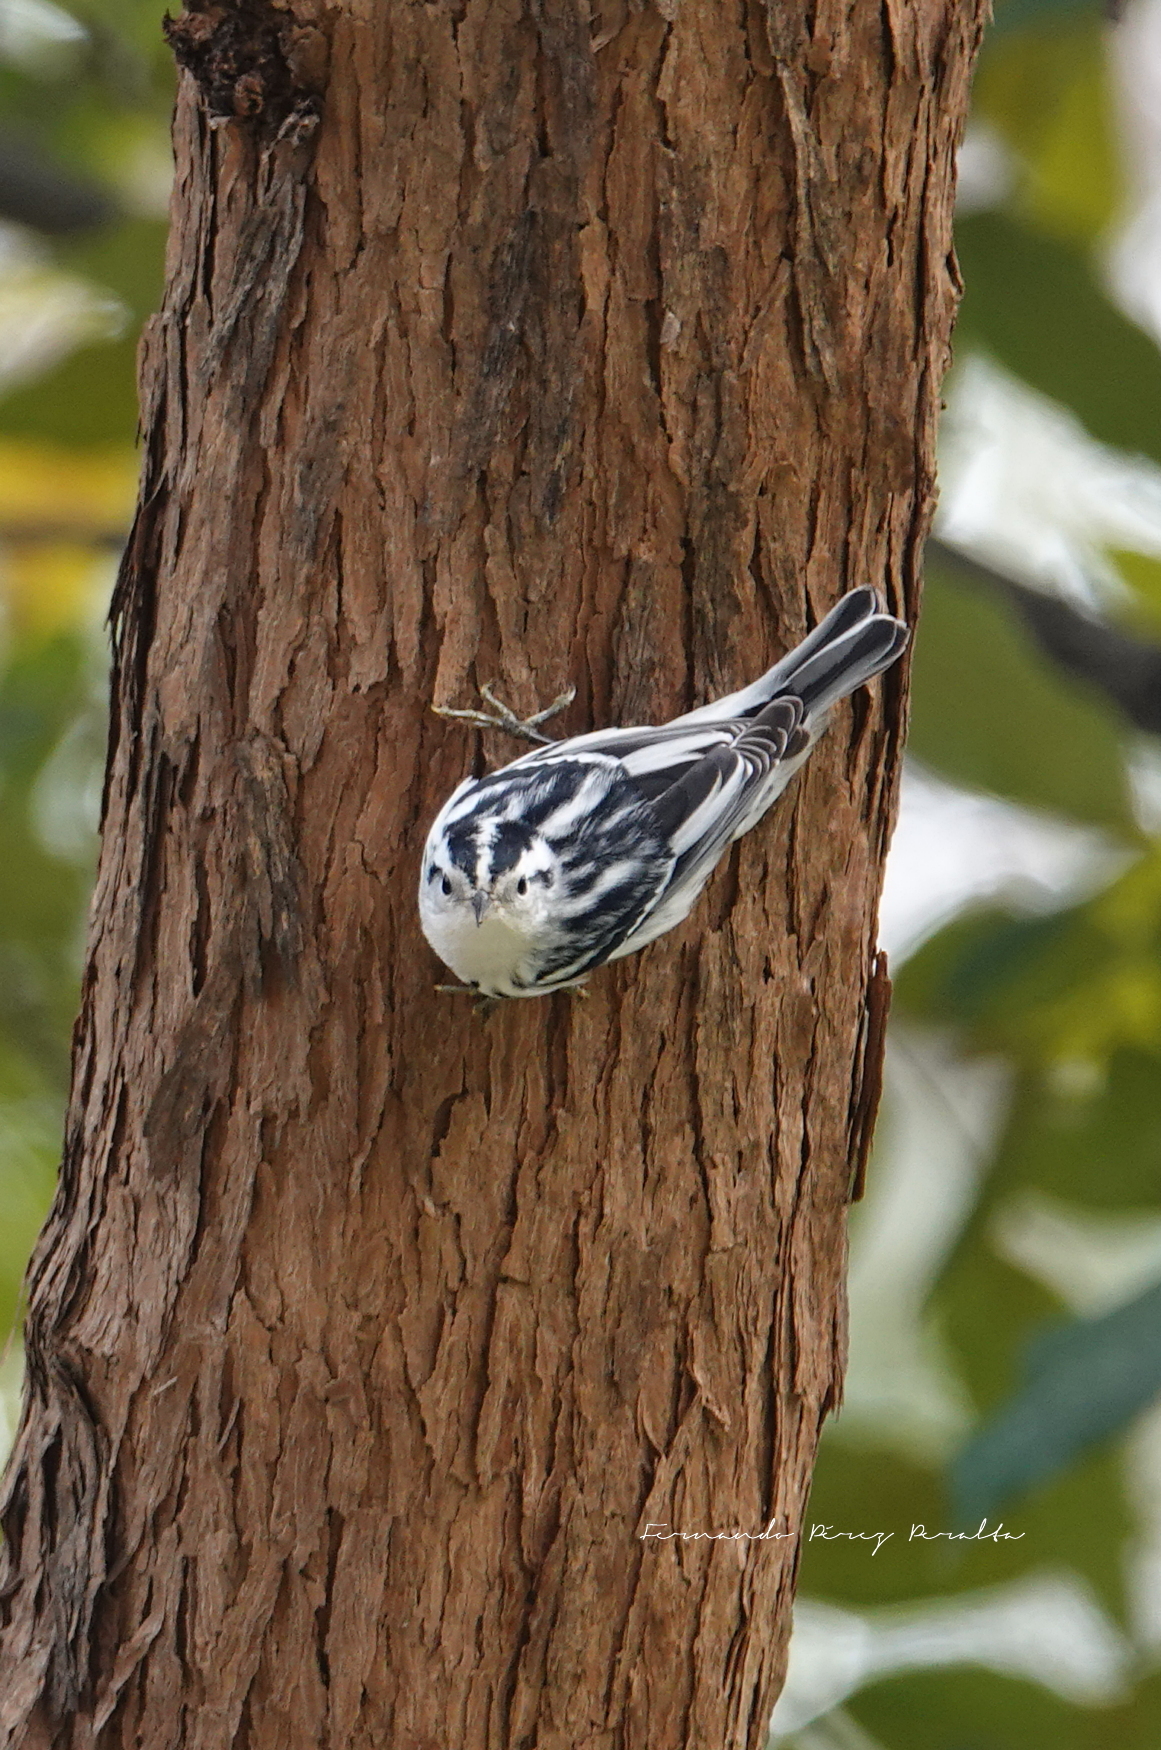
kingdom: Animalia
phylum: Chordata
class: Aves
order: Passeriformes
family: Parulidae
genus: Mniotilta
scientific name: Mniotilta varia
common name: Black-and-white warbler
